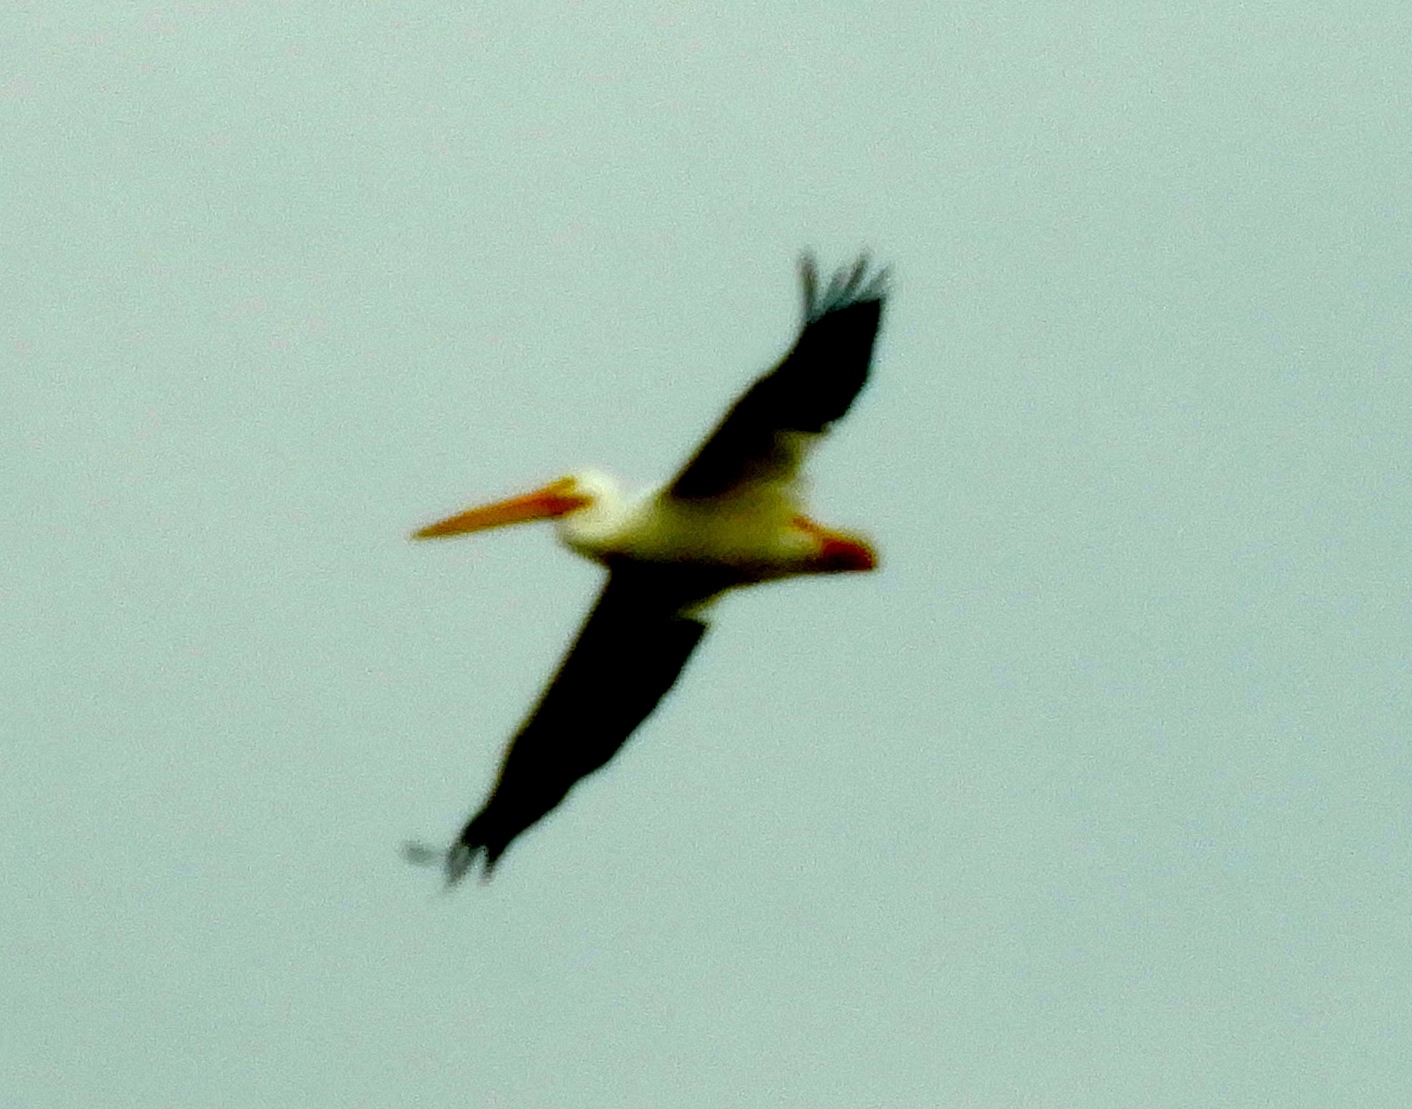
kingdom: Animalia
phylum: Chordata
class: Aves
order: Pelecaniformes
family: Pelecanidae
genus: Pelecanus
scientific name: Pelecanus erythrorhynchos
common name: American white pelican
